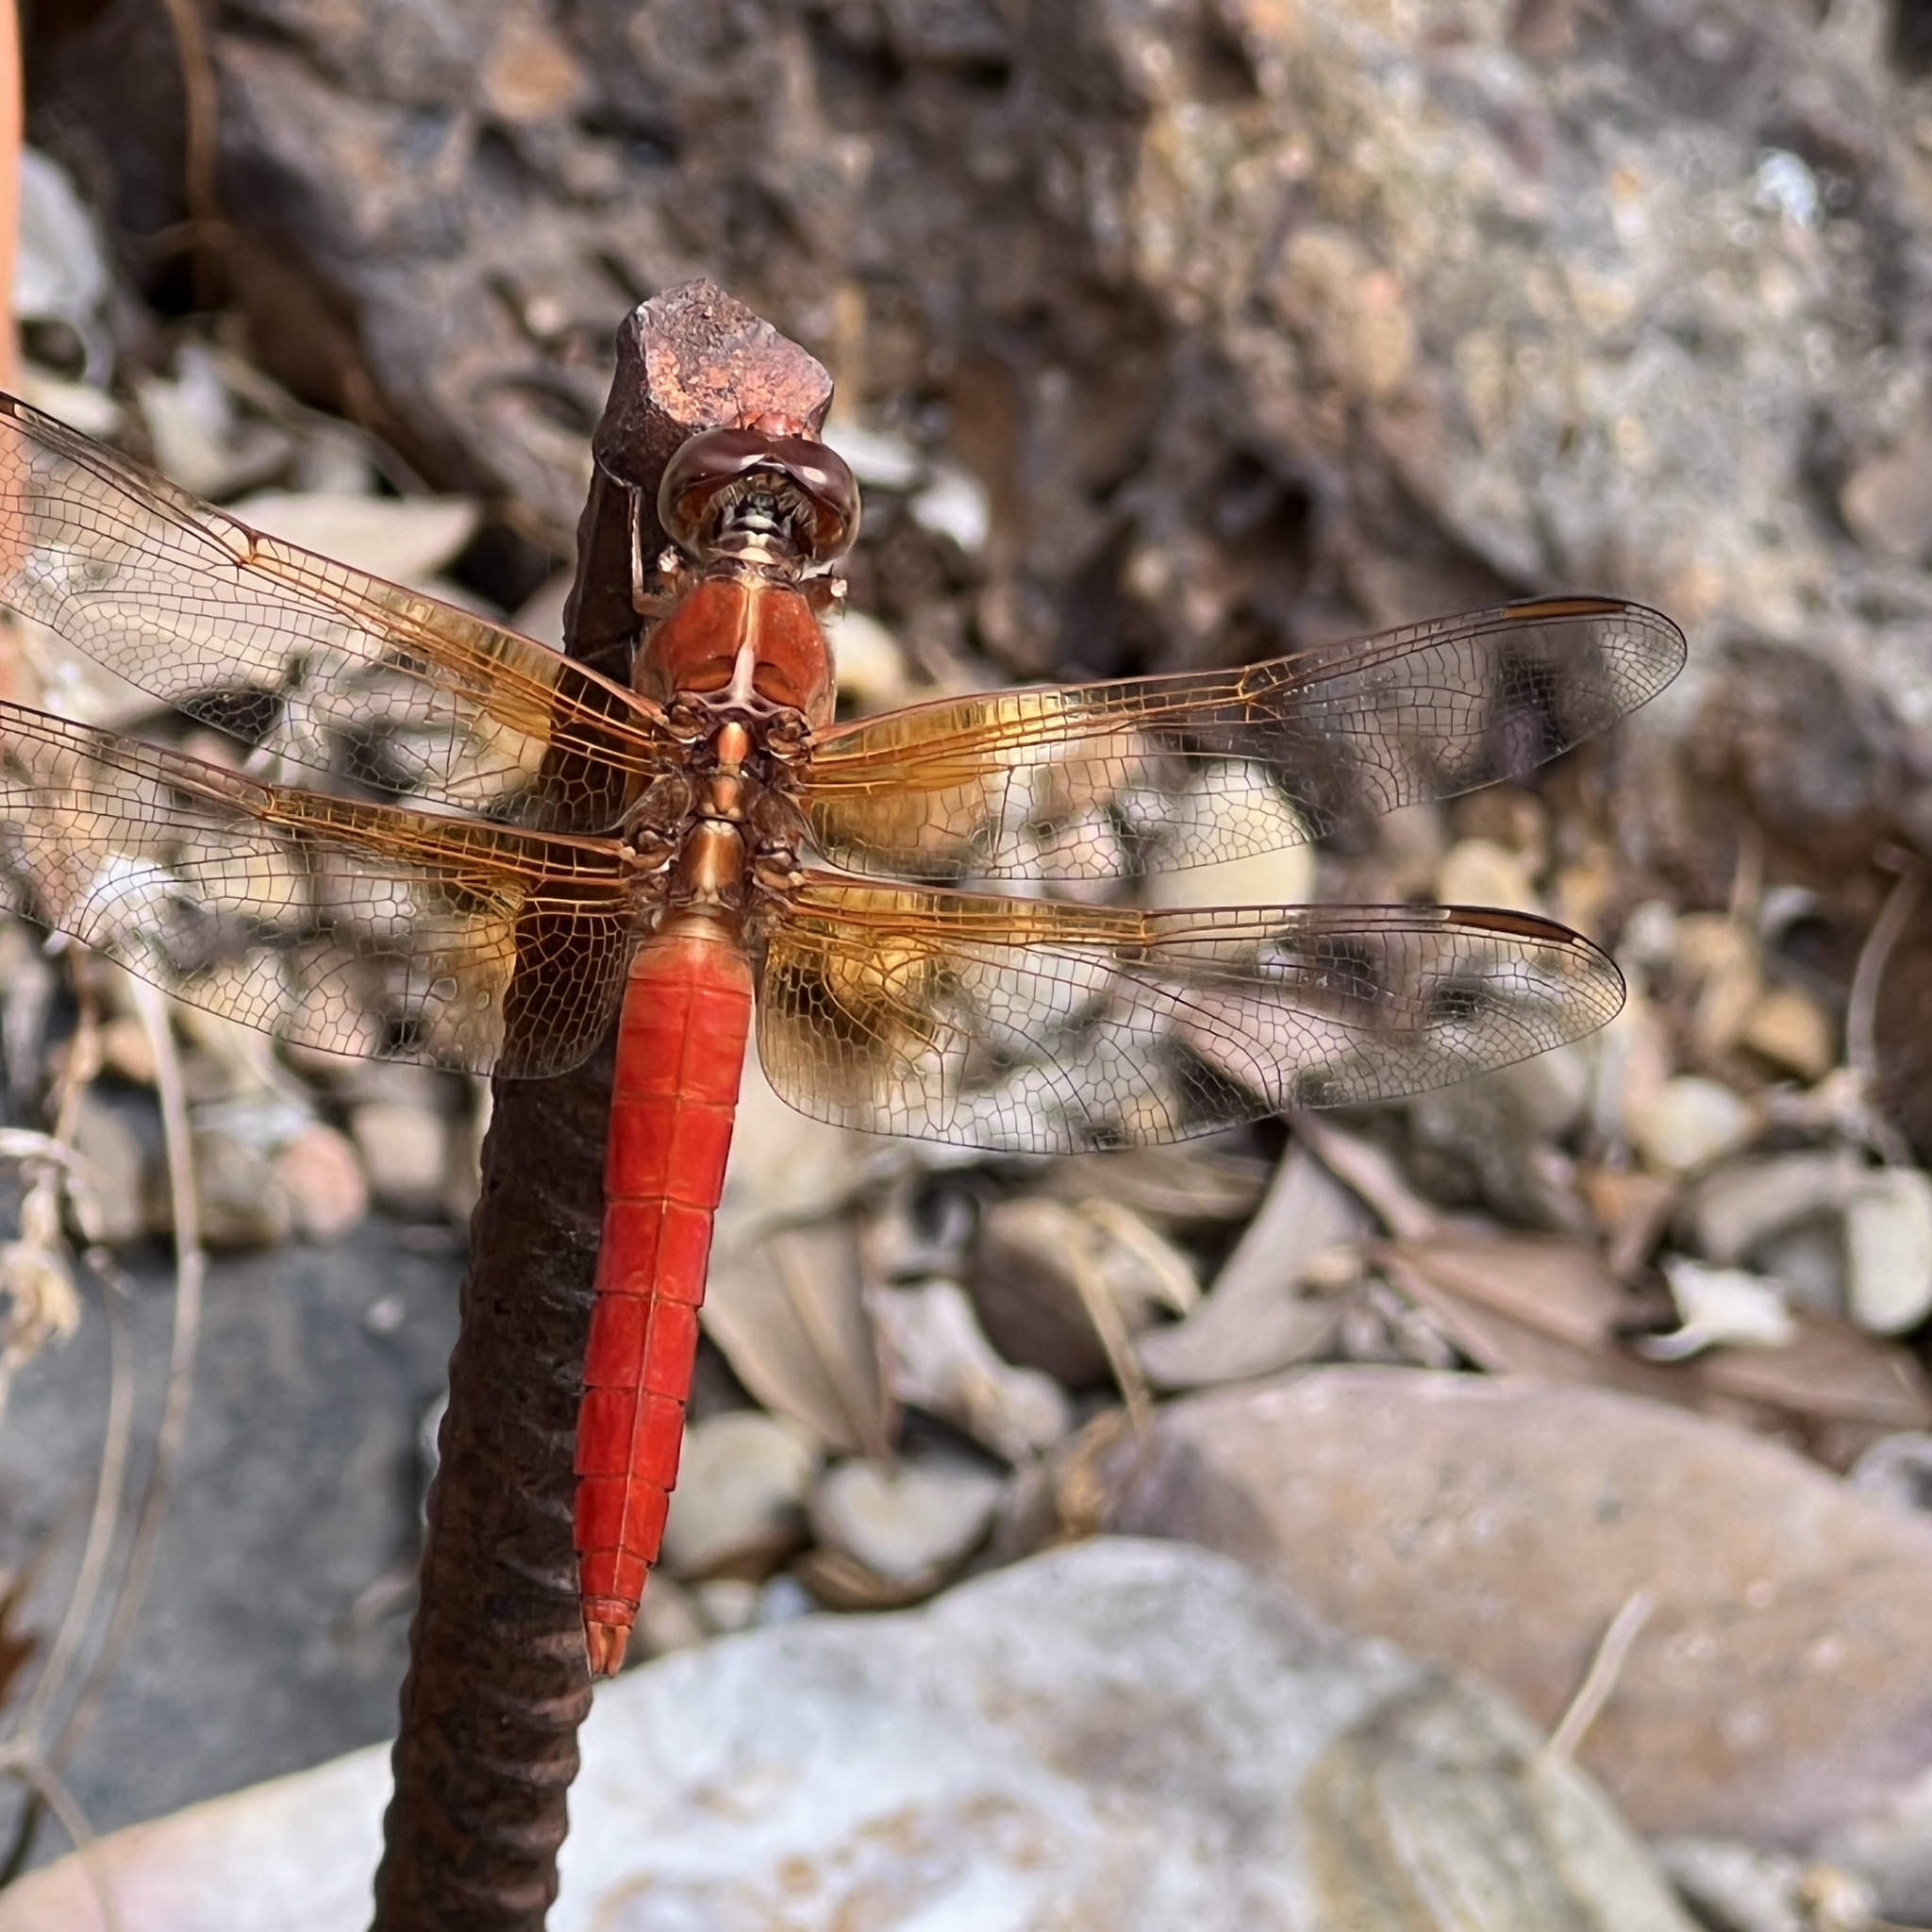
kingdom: Animalia
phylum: Arthropoda
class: Insecta
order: Odonata
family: Libellulidae
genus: Libellula
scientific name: Libellula croceipennis
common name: Neon skimmer
